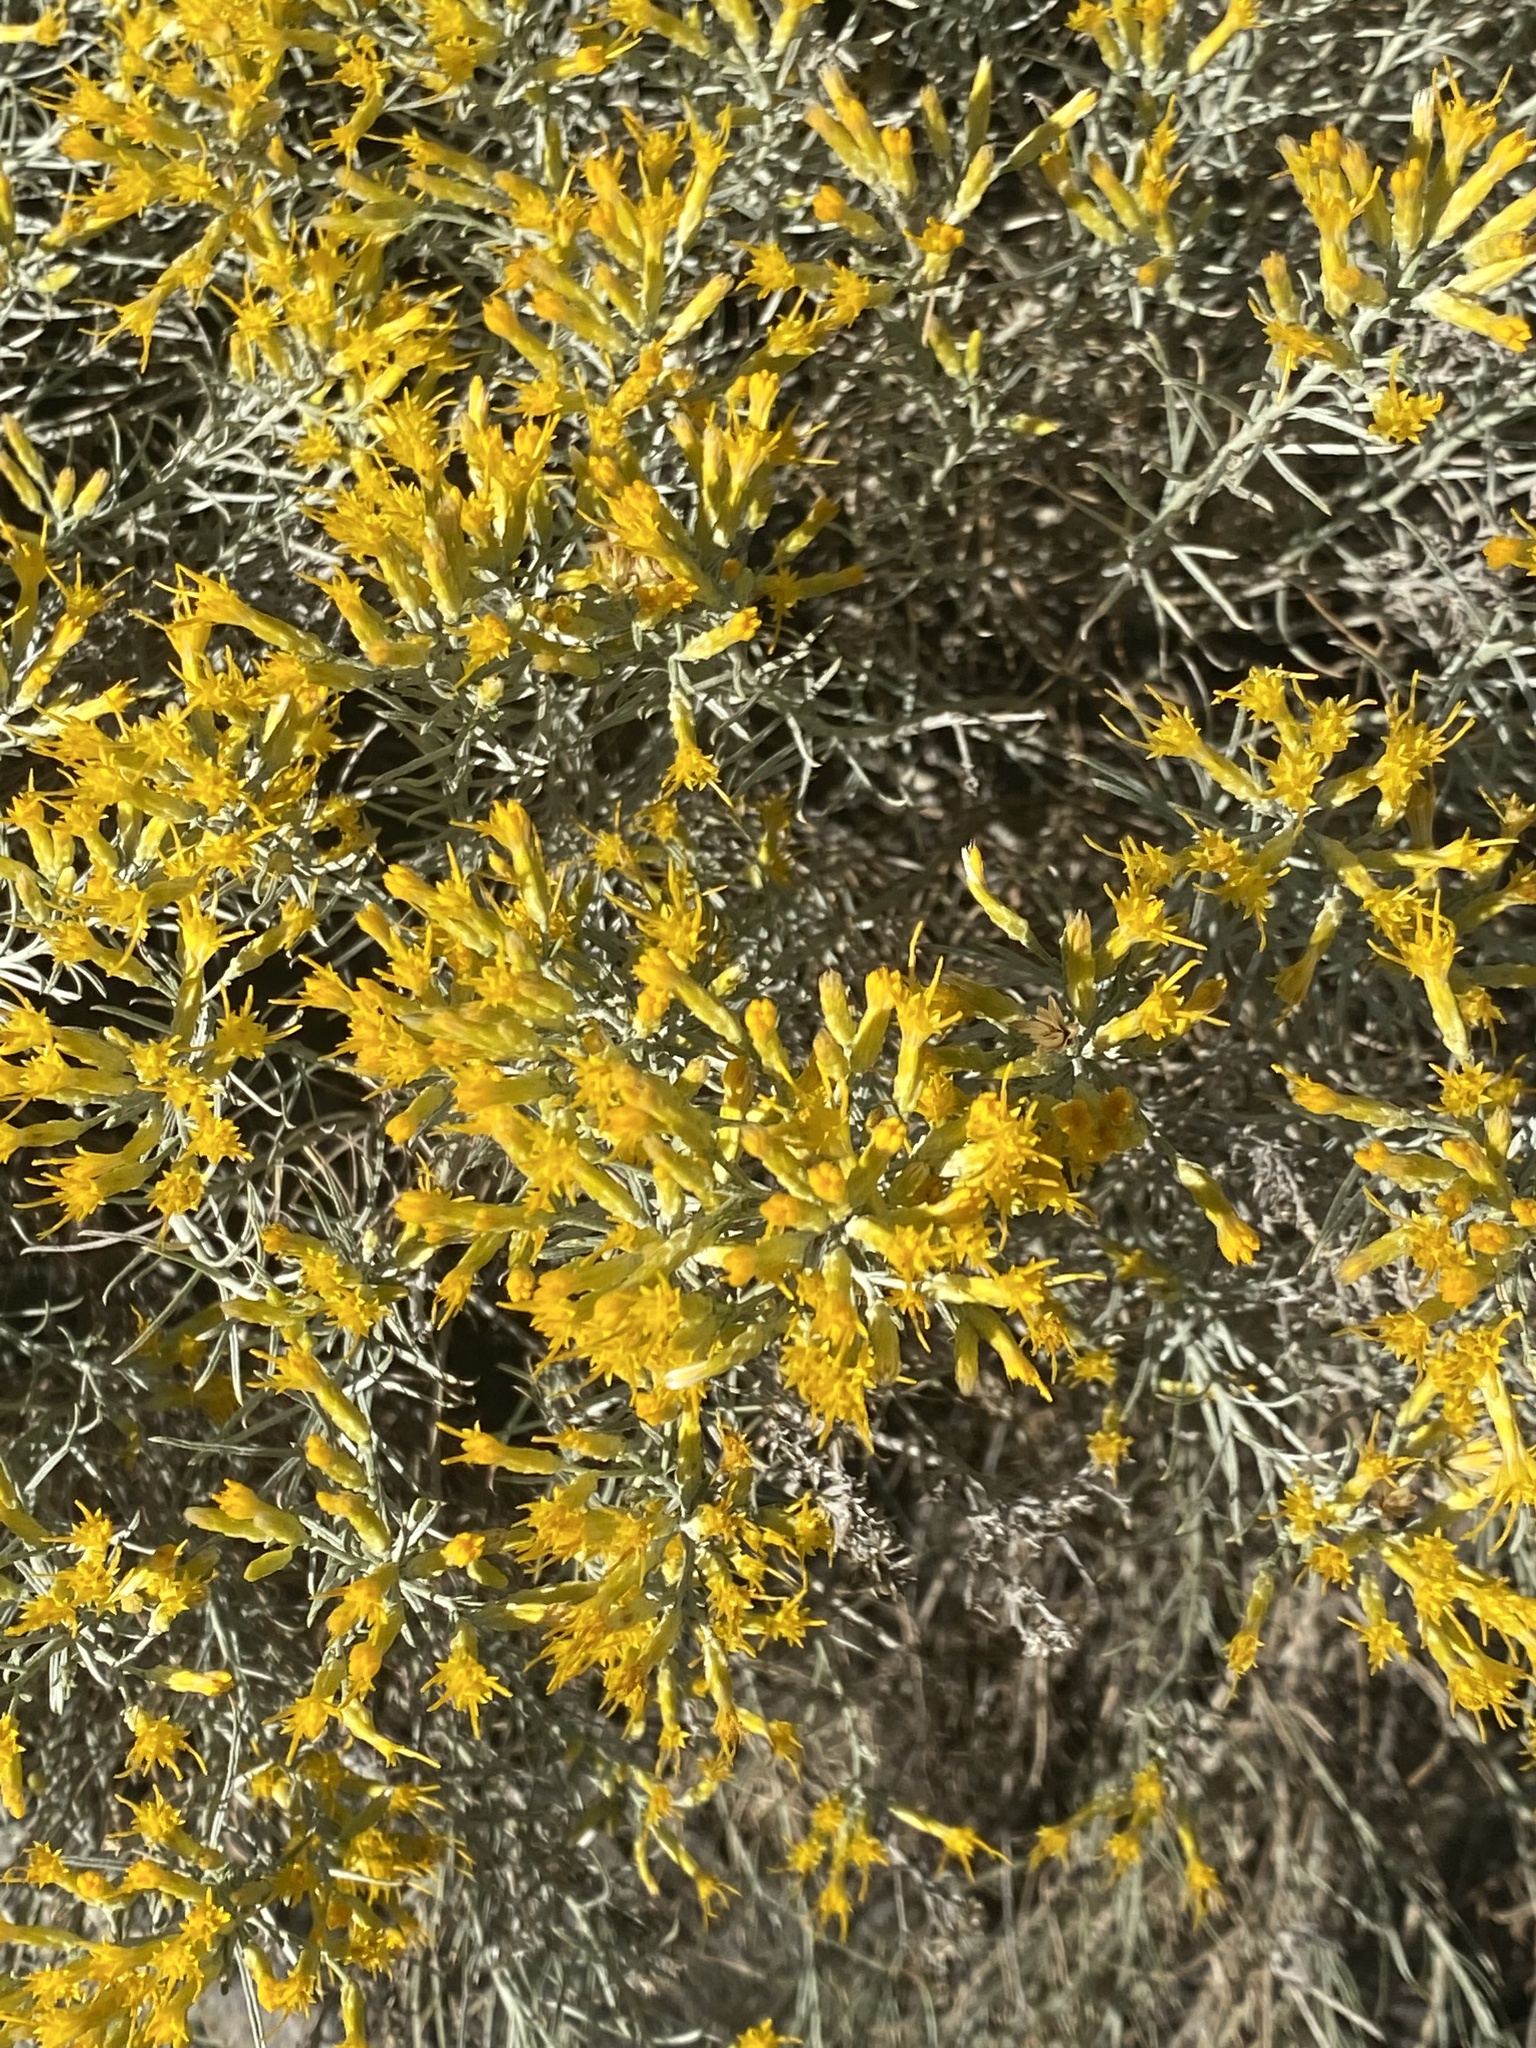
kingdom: Plantae
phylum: Tracheophyta
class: Magnoliopsida
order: Asterales
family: Asteraceae
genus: Ericameria
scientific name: Ericameria nauseosa
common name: Rubber rabbitbrush
